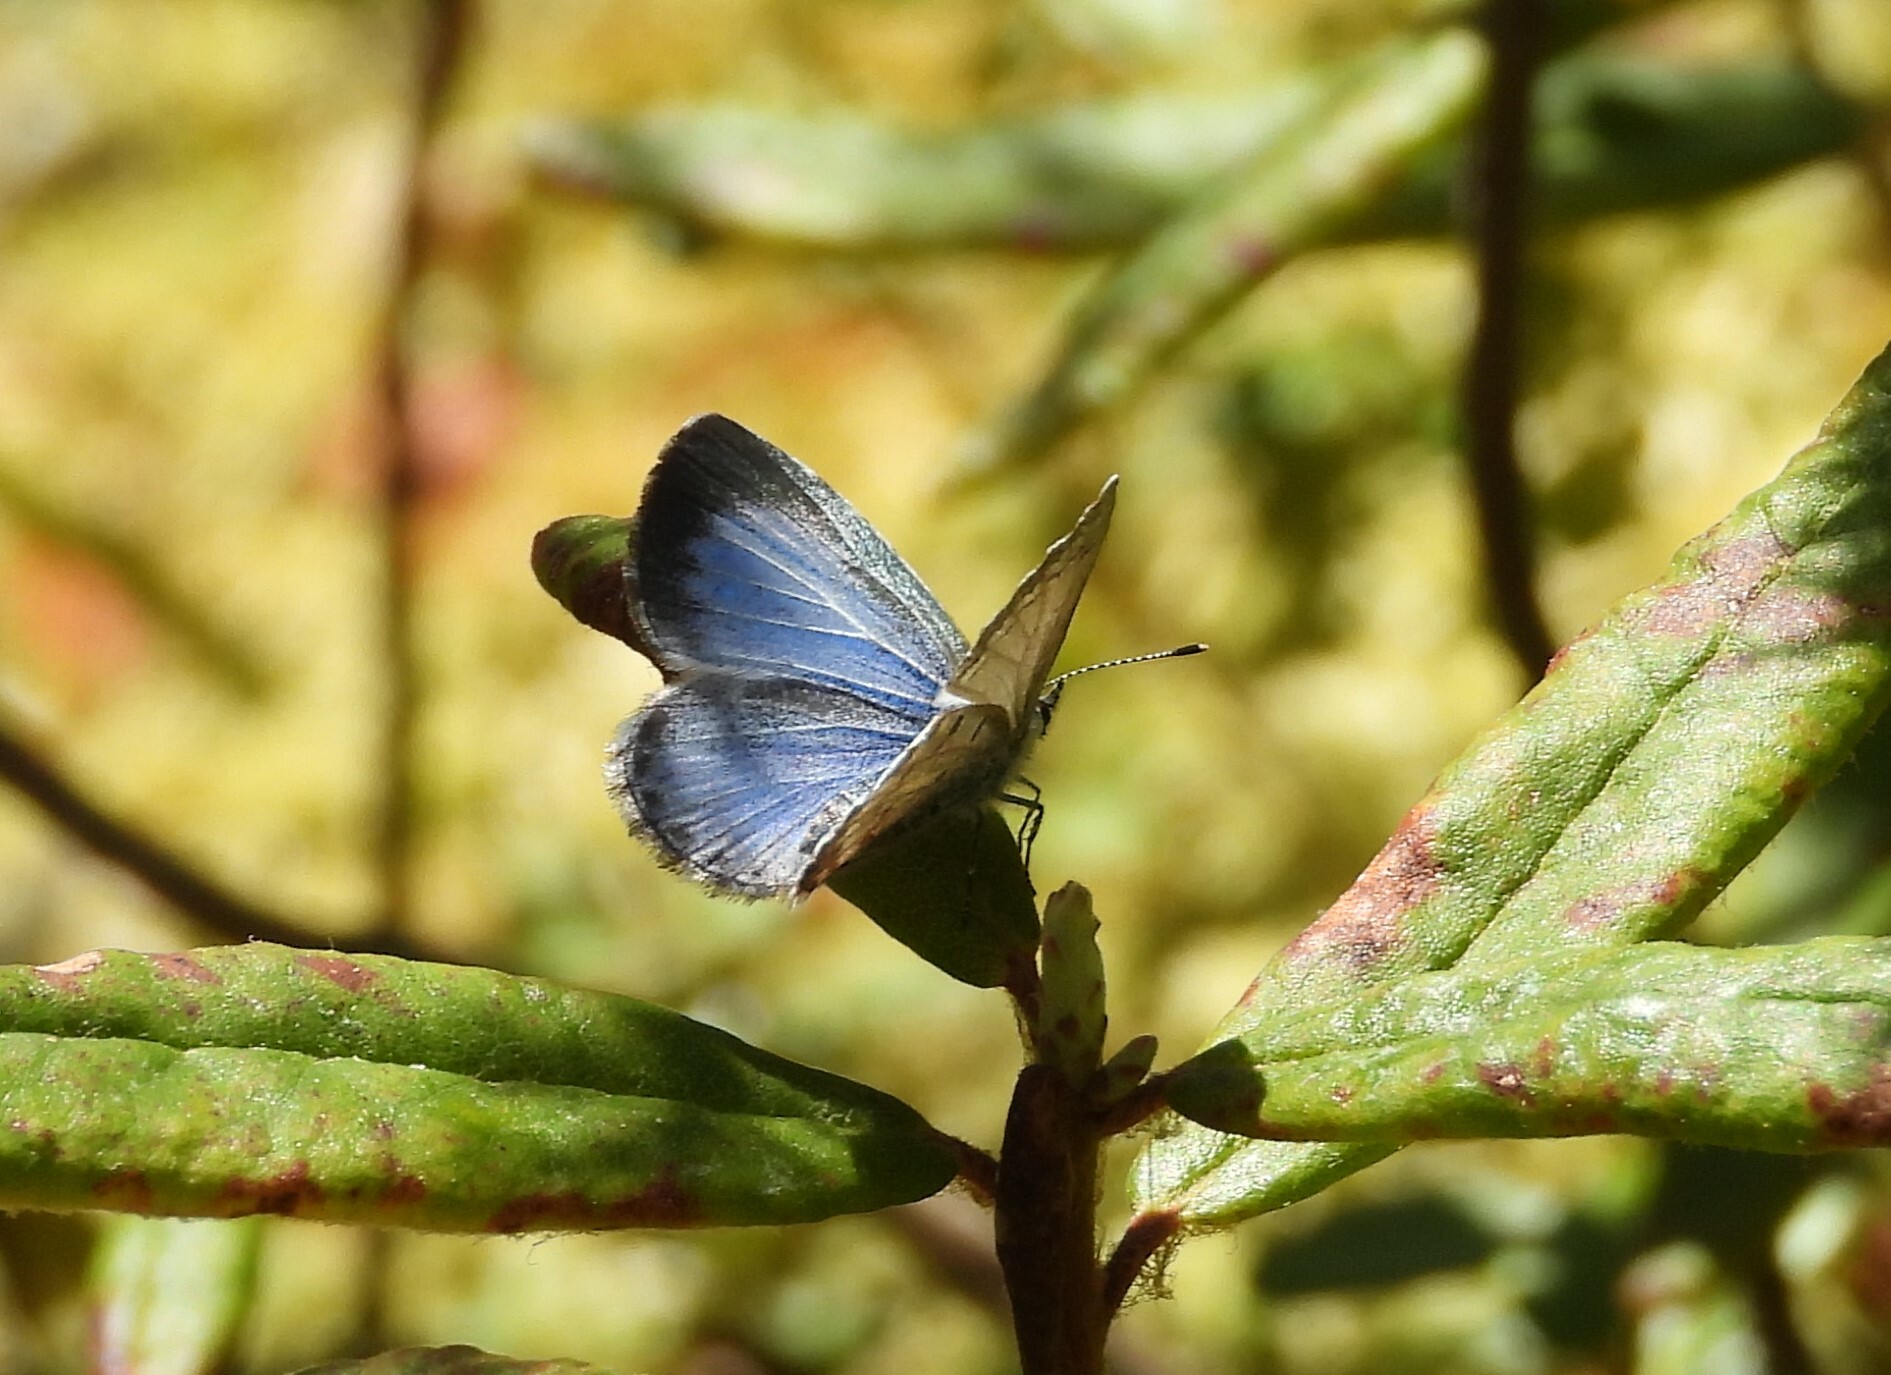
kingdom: Animalia
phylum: Arthropoda
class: Insecta
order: Lepidoptera
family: Lycaenidae
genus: Celastrina
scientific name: Celastrina lucia
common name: Lucia azure
